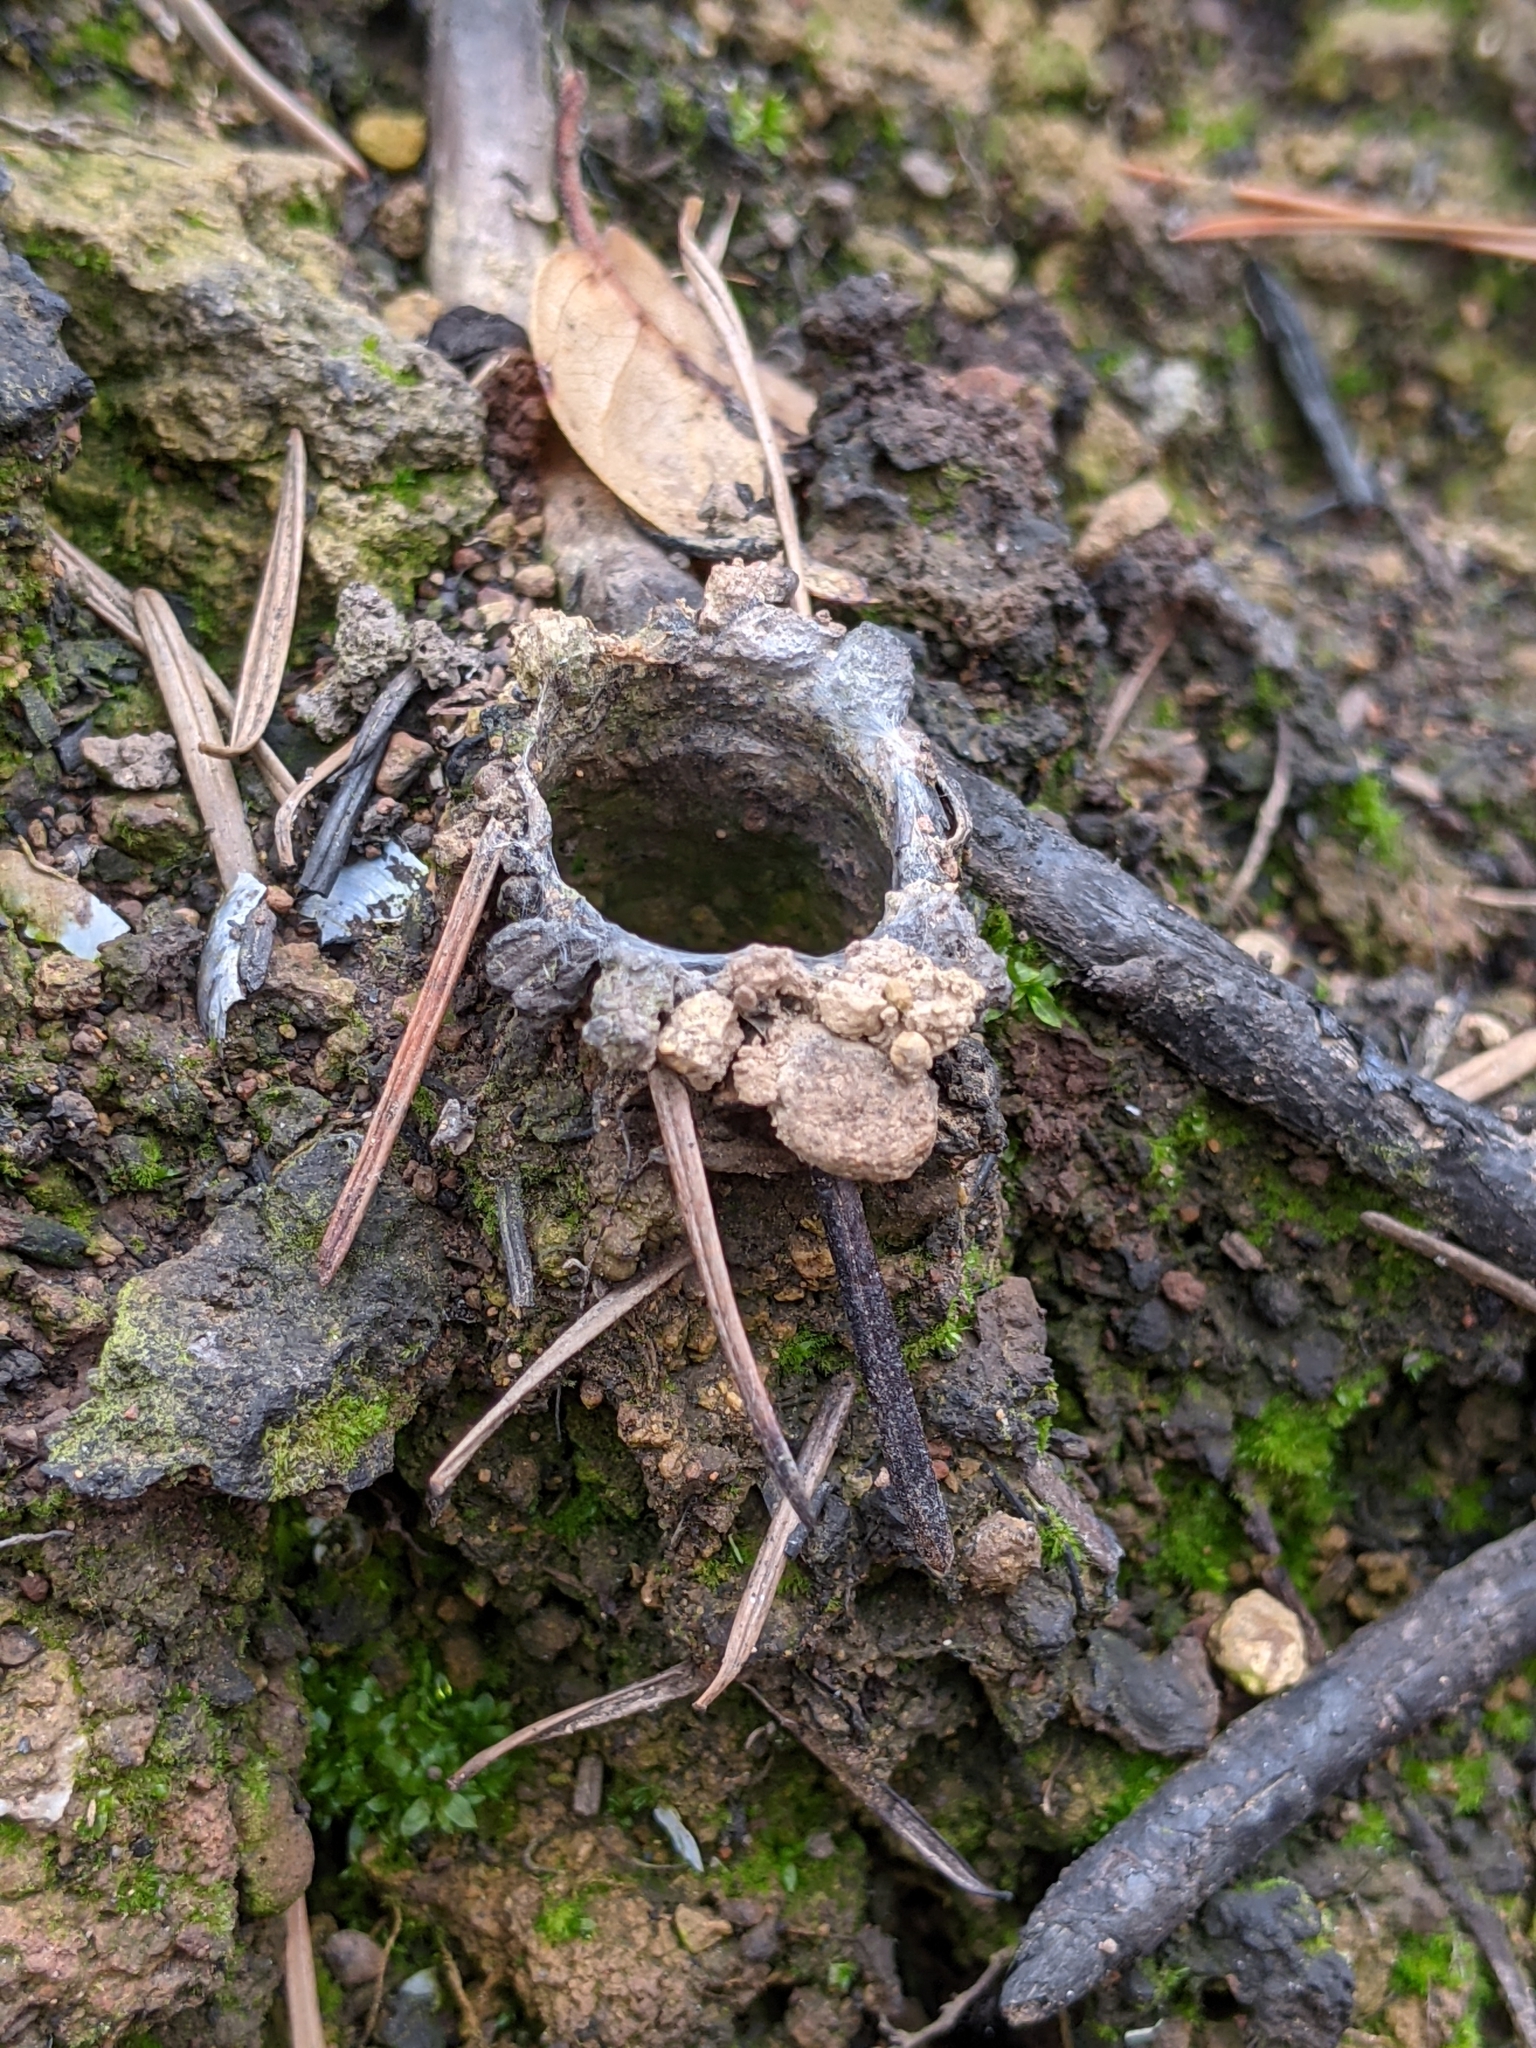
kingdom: Animalia
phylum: Arthropoda
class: Arachnida
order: Araneae
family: Antrodiaetidae
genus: Atypoides
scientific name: Atypoides riversi
